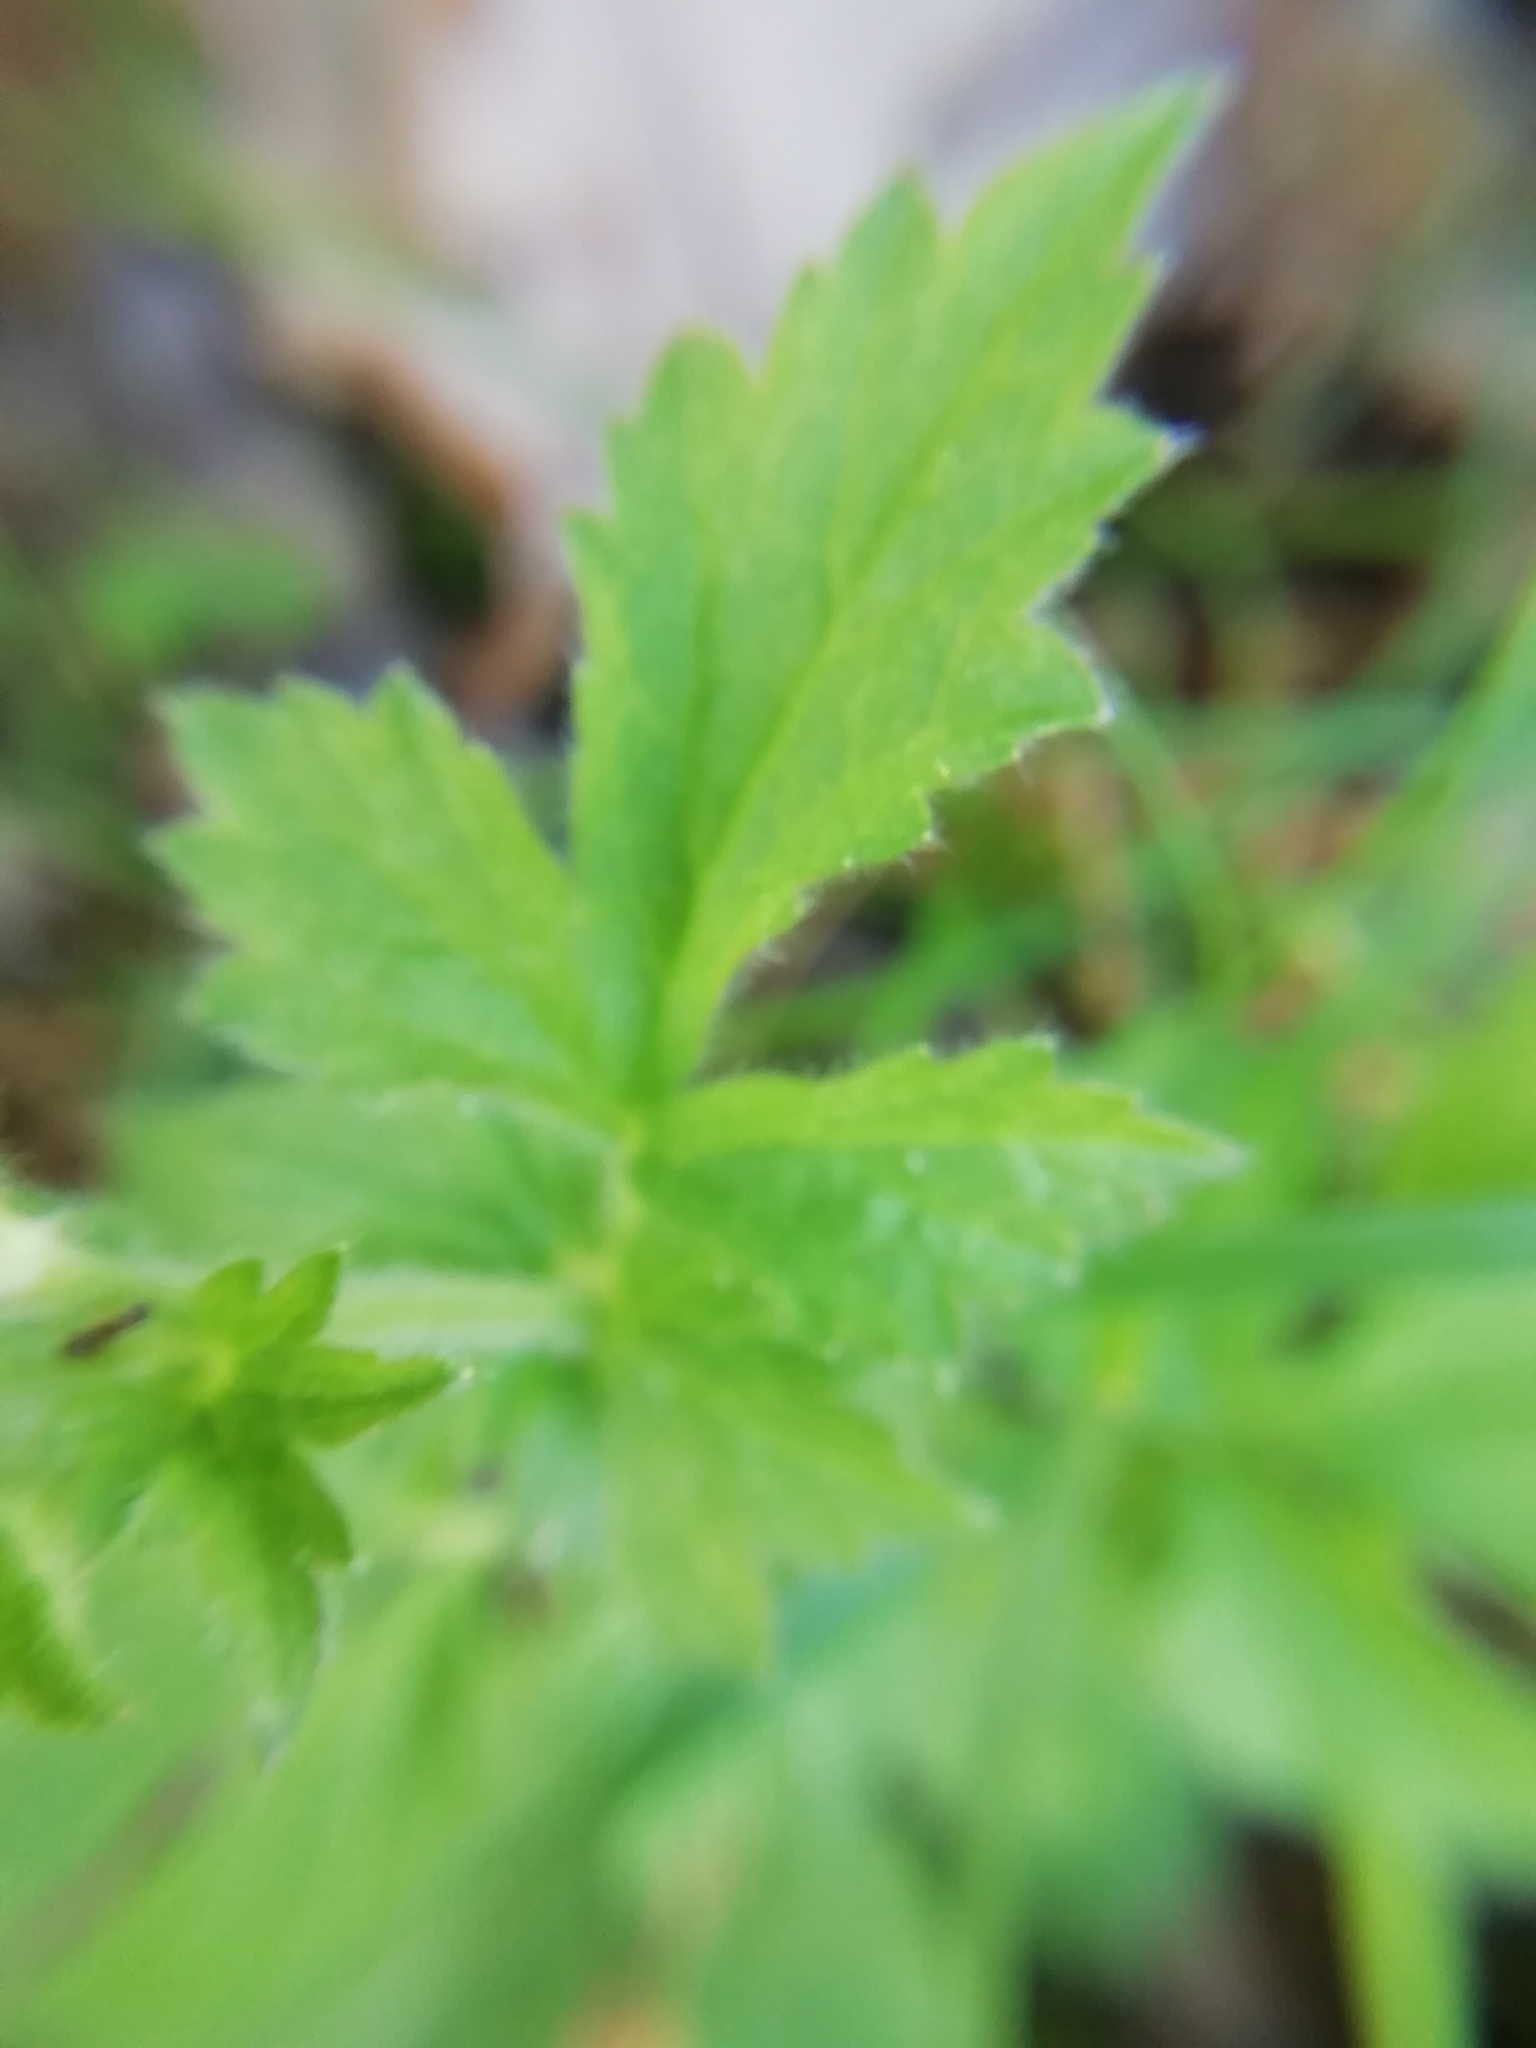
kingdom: Plantae
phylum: Tracheophyta
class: Magnoliopsida
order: Rosales
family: Rosaceae
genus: Geum
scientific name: Geum urbanum
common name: Wood avens
